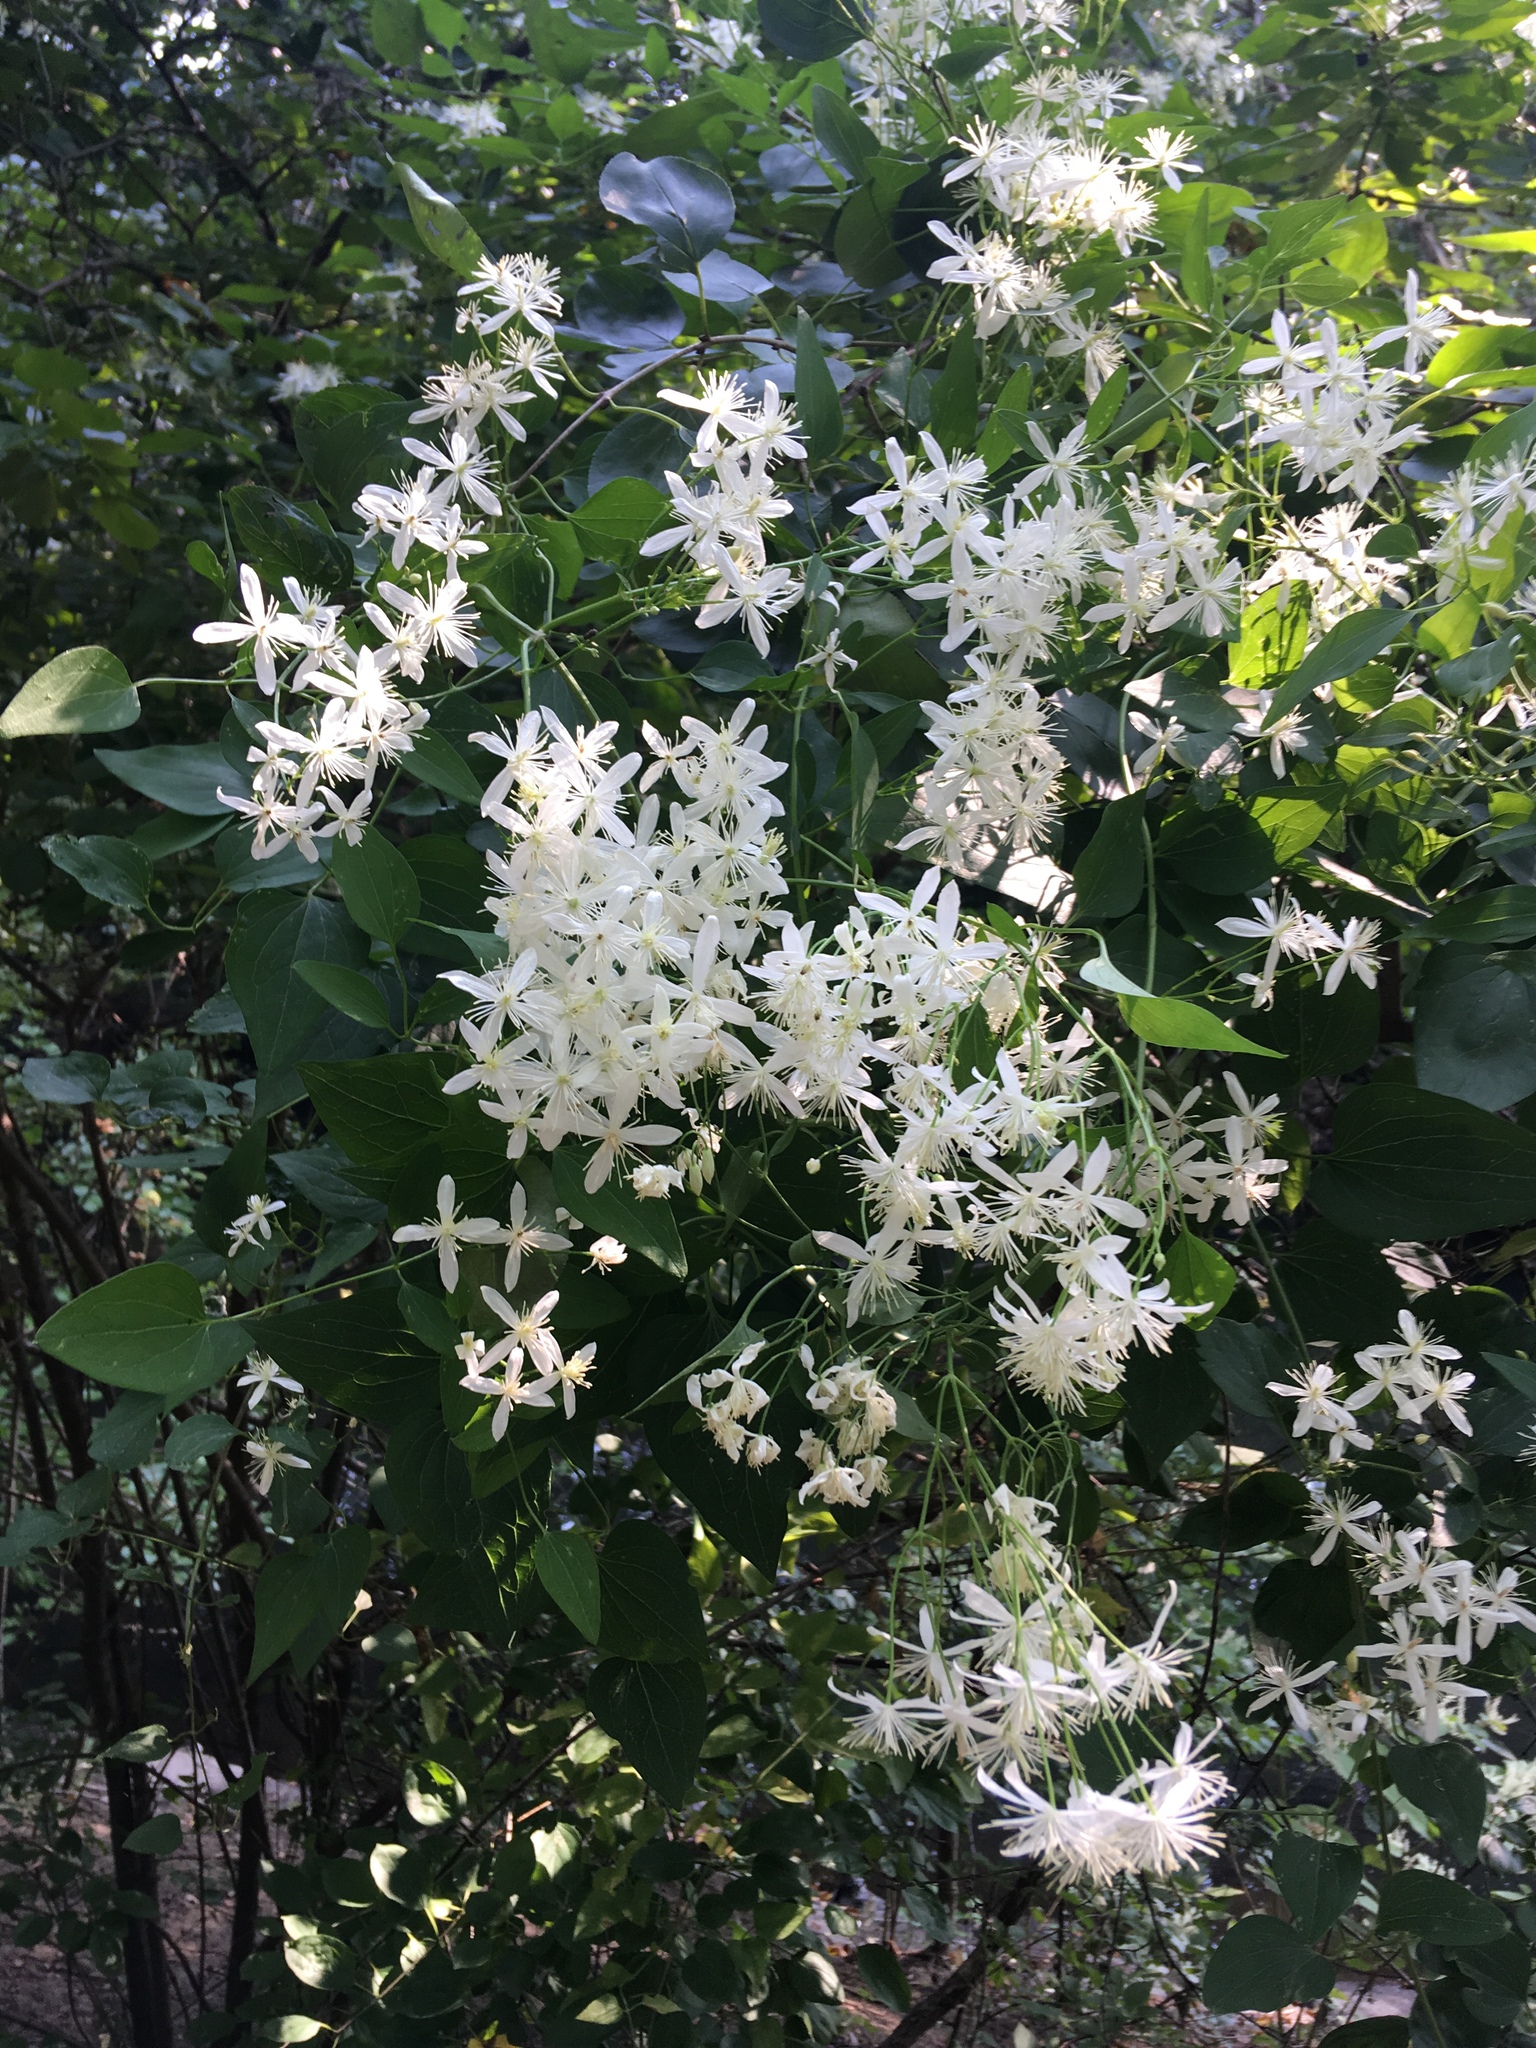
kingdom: Plantae
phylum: Tracheophyta
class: Magnoliopsida
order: Ranunculales
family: Ranunculaceae
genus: Clematis
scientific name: Clematis terniflora
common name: Sweet autumn clematis
